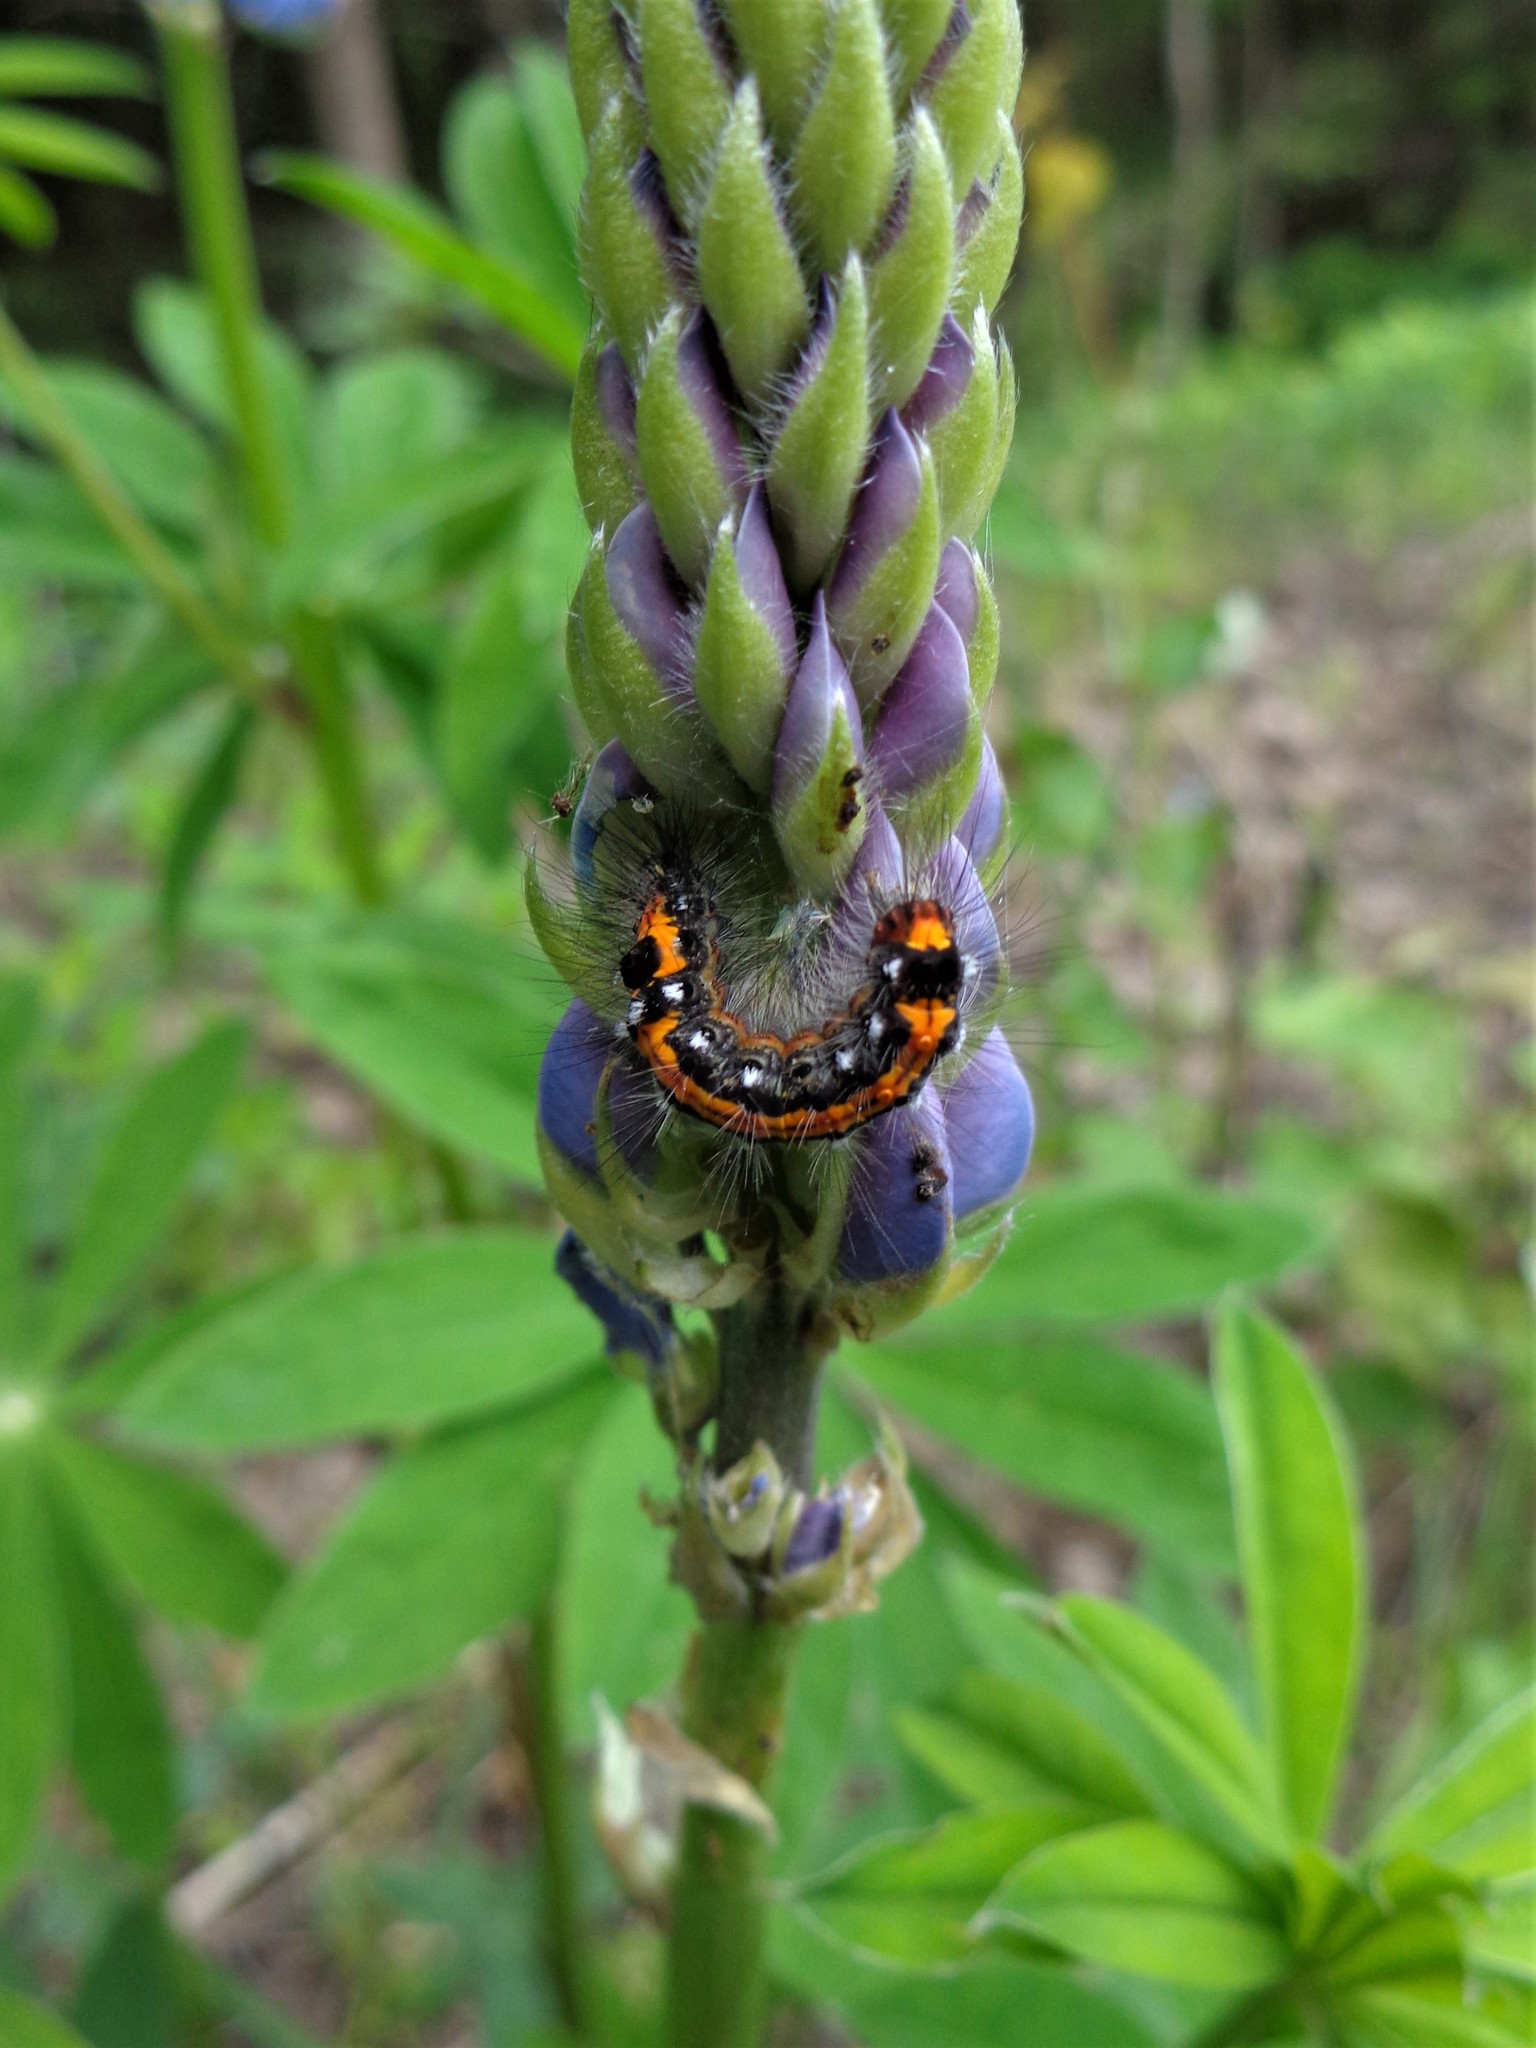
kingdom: Animalia
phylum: Arthropoda
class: Insecta
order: Lepidoptera
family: Erebidae
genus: Sphrageidus
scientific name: Sphrageidus similis
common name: Yellow-tail
